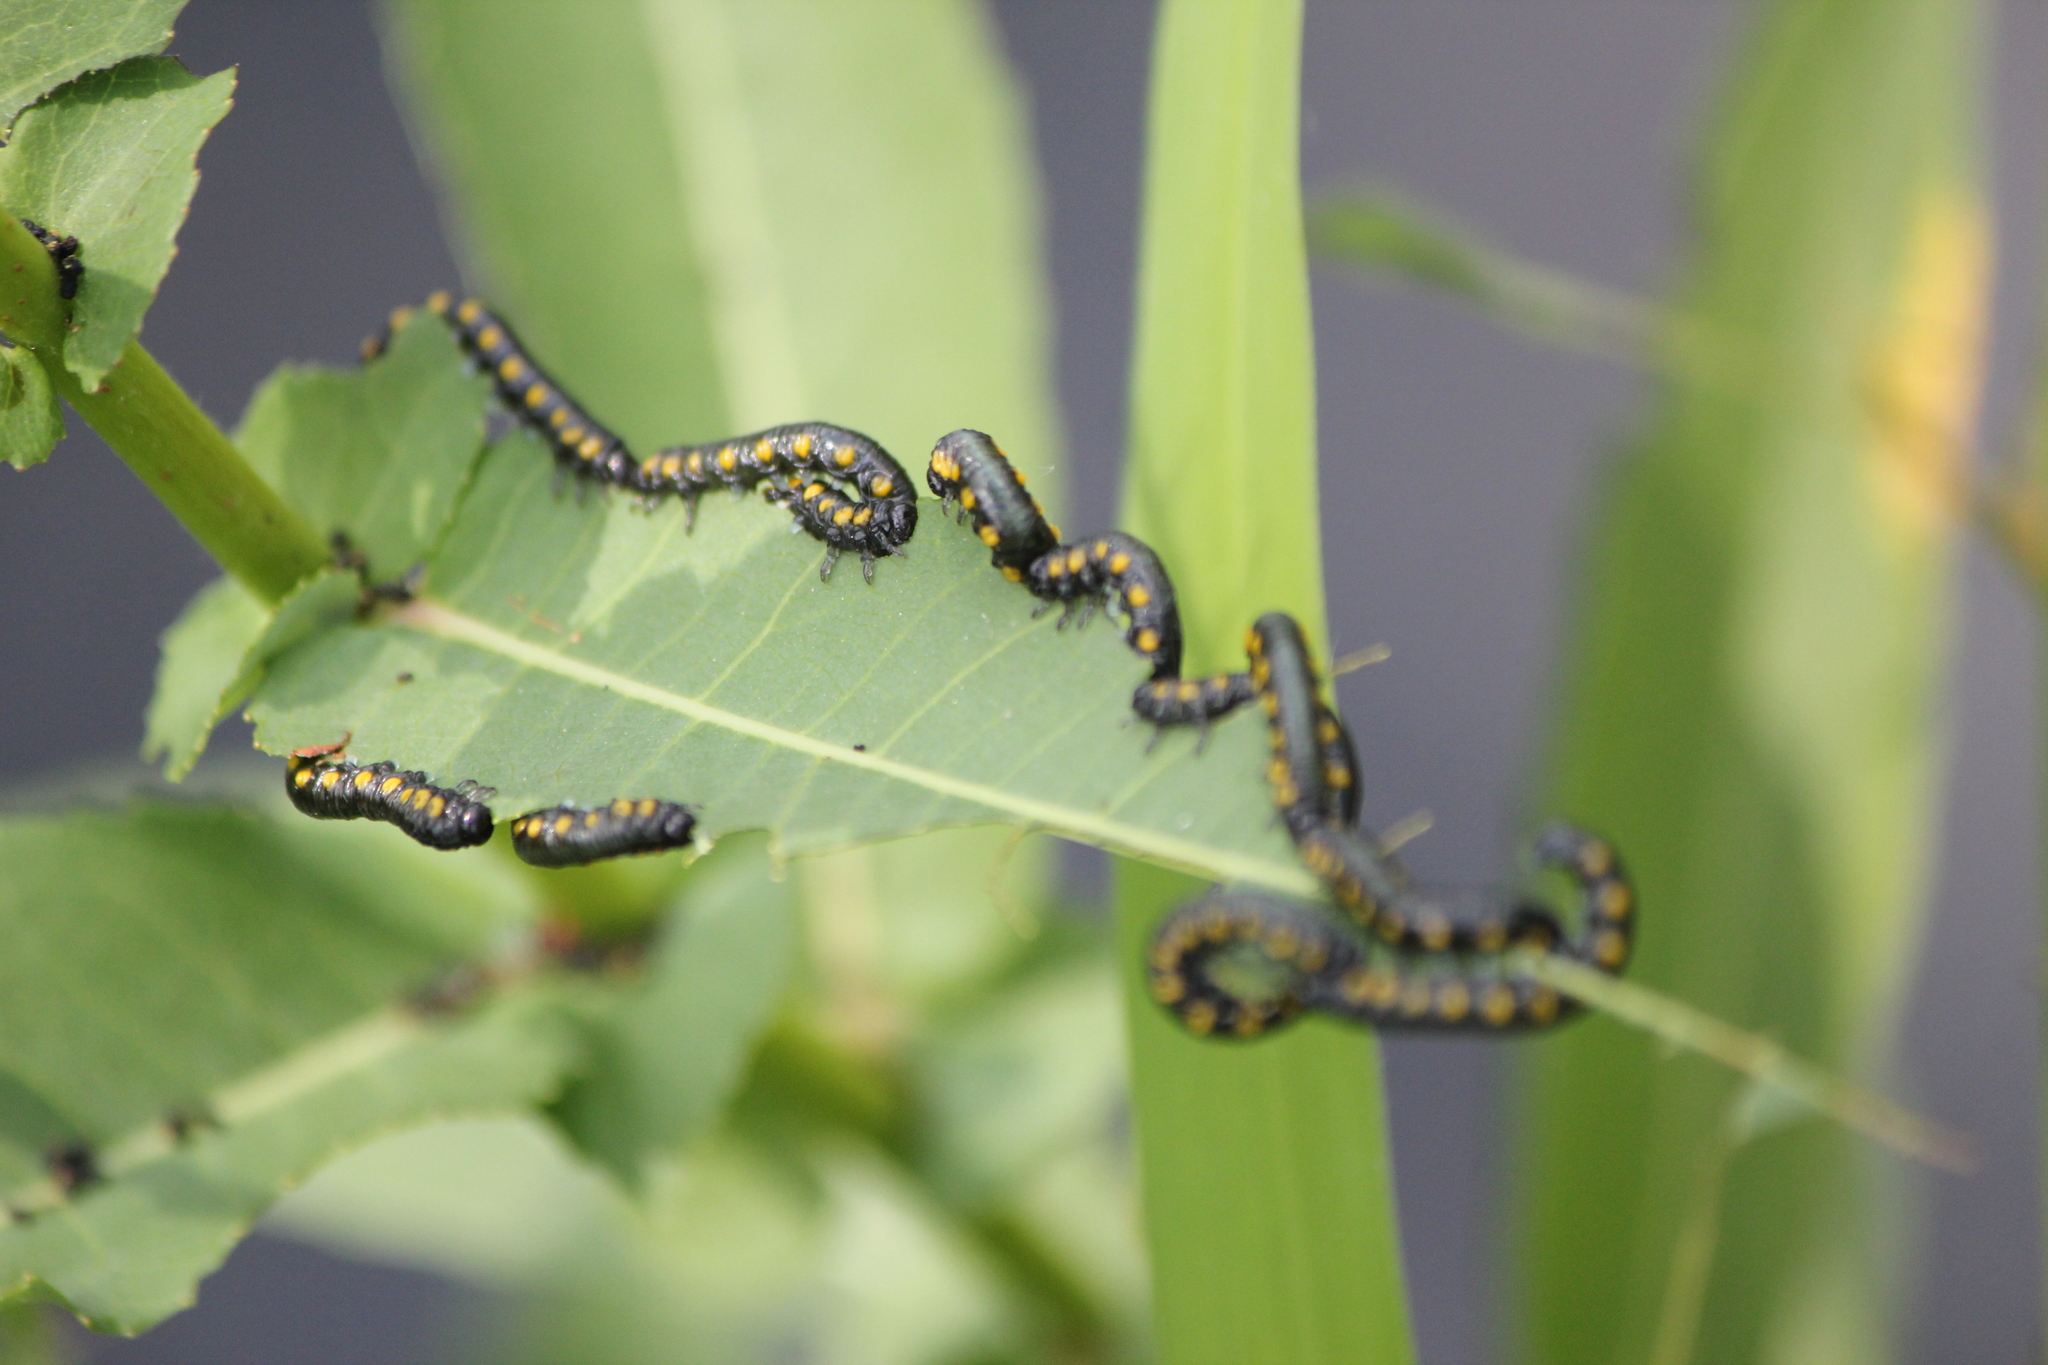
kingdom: Animalia
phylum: Arthropoda
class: Insecta
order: Hymenoptera
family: Tenthredinidae
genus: Euura
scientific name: Euura ventralis
